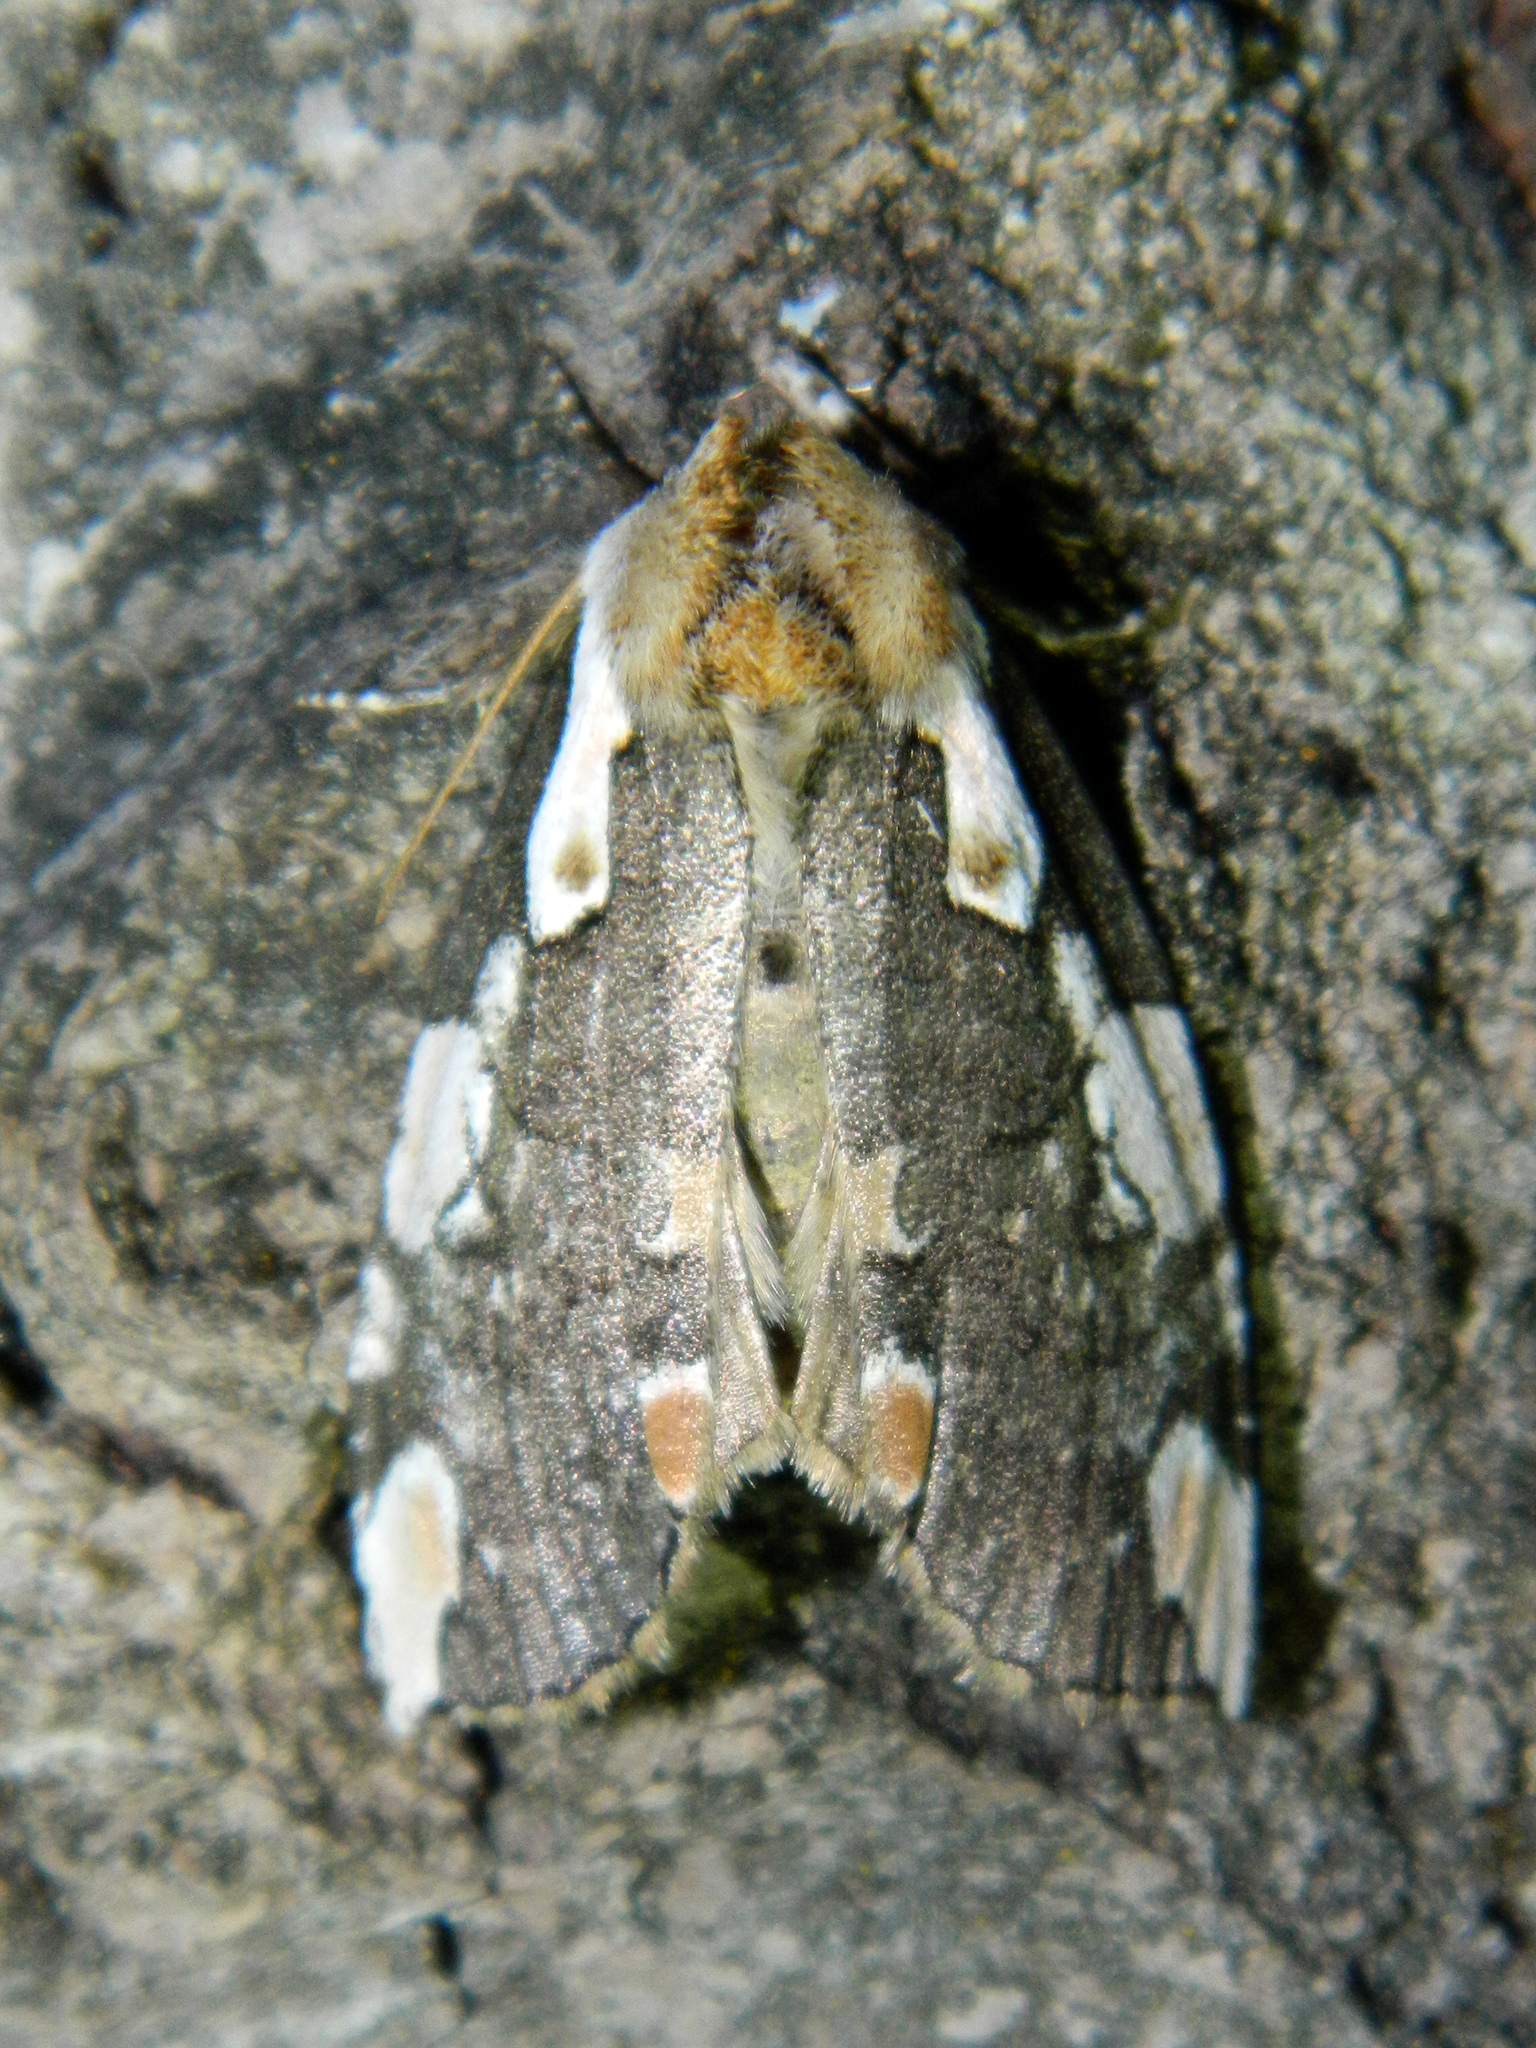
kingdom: Animalia
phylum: Arthropoda
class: Insecta
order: Lepidoptera
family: Drepanidae
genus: Euthyatira
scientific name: Euthyatira pudens
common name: Dogwood thyatirid moth
